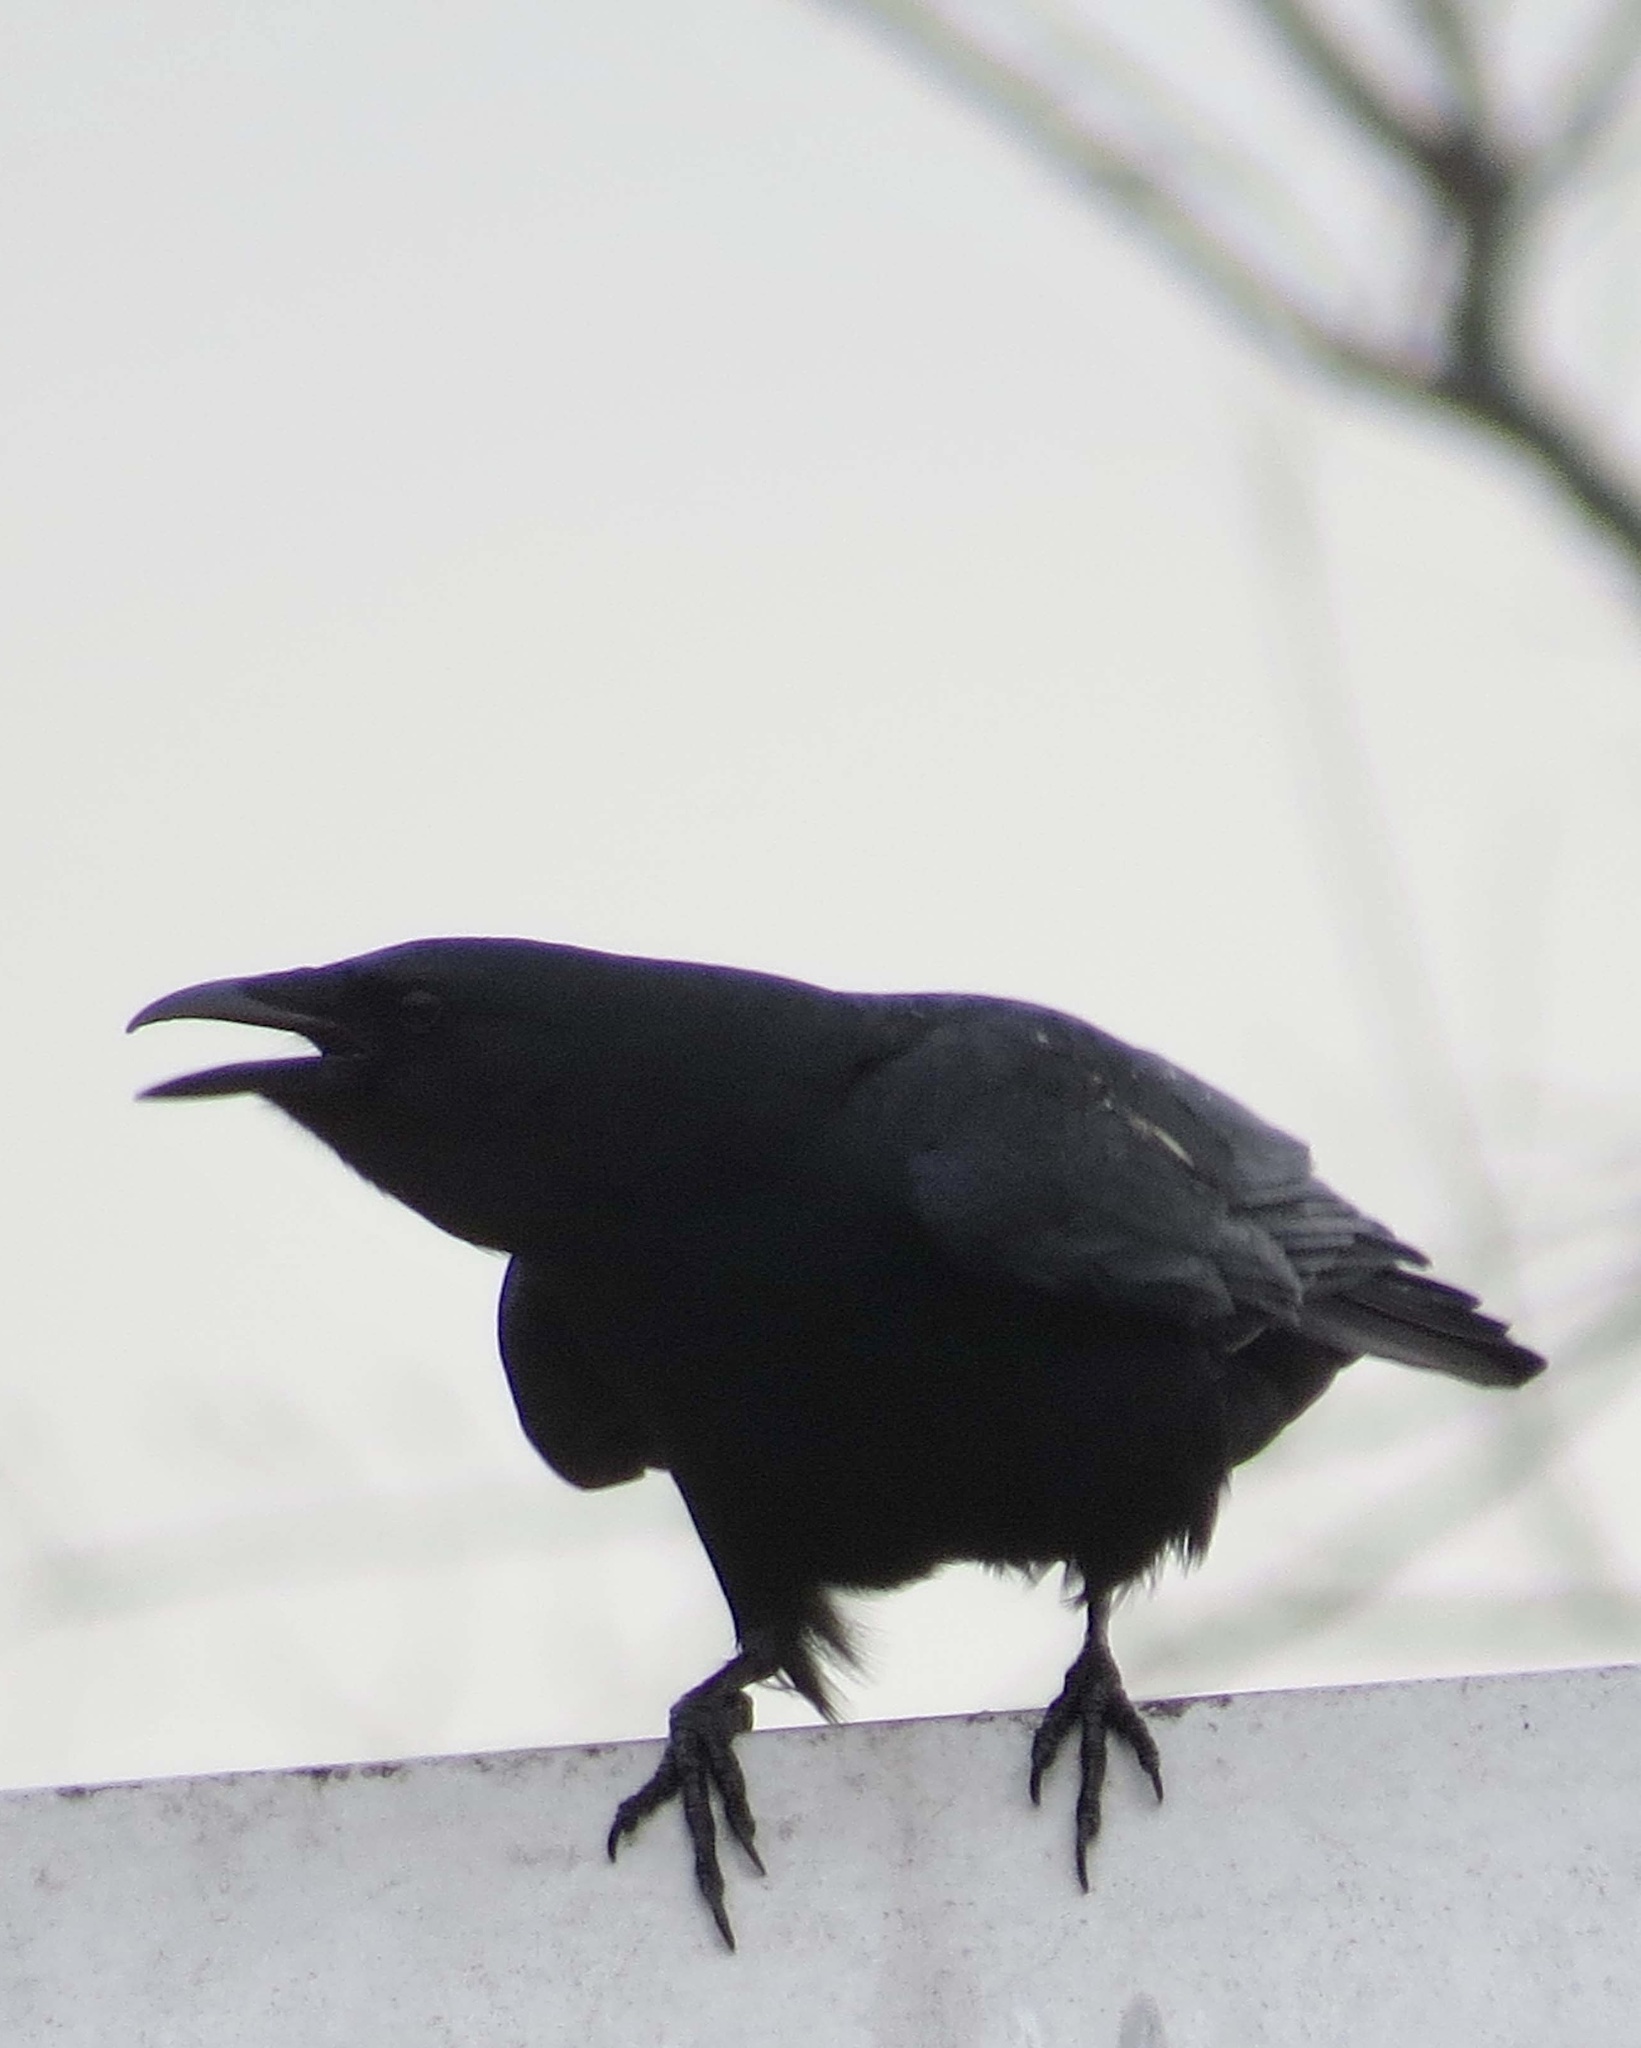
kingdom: Animalia
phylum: Chordata
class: Aves
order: Passeriformes
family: Corvidae
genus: Corvus
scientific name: Corvus ossifragus
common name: Fish crow
